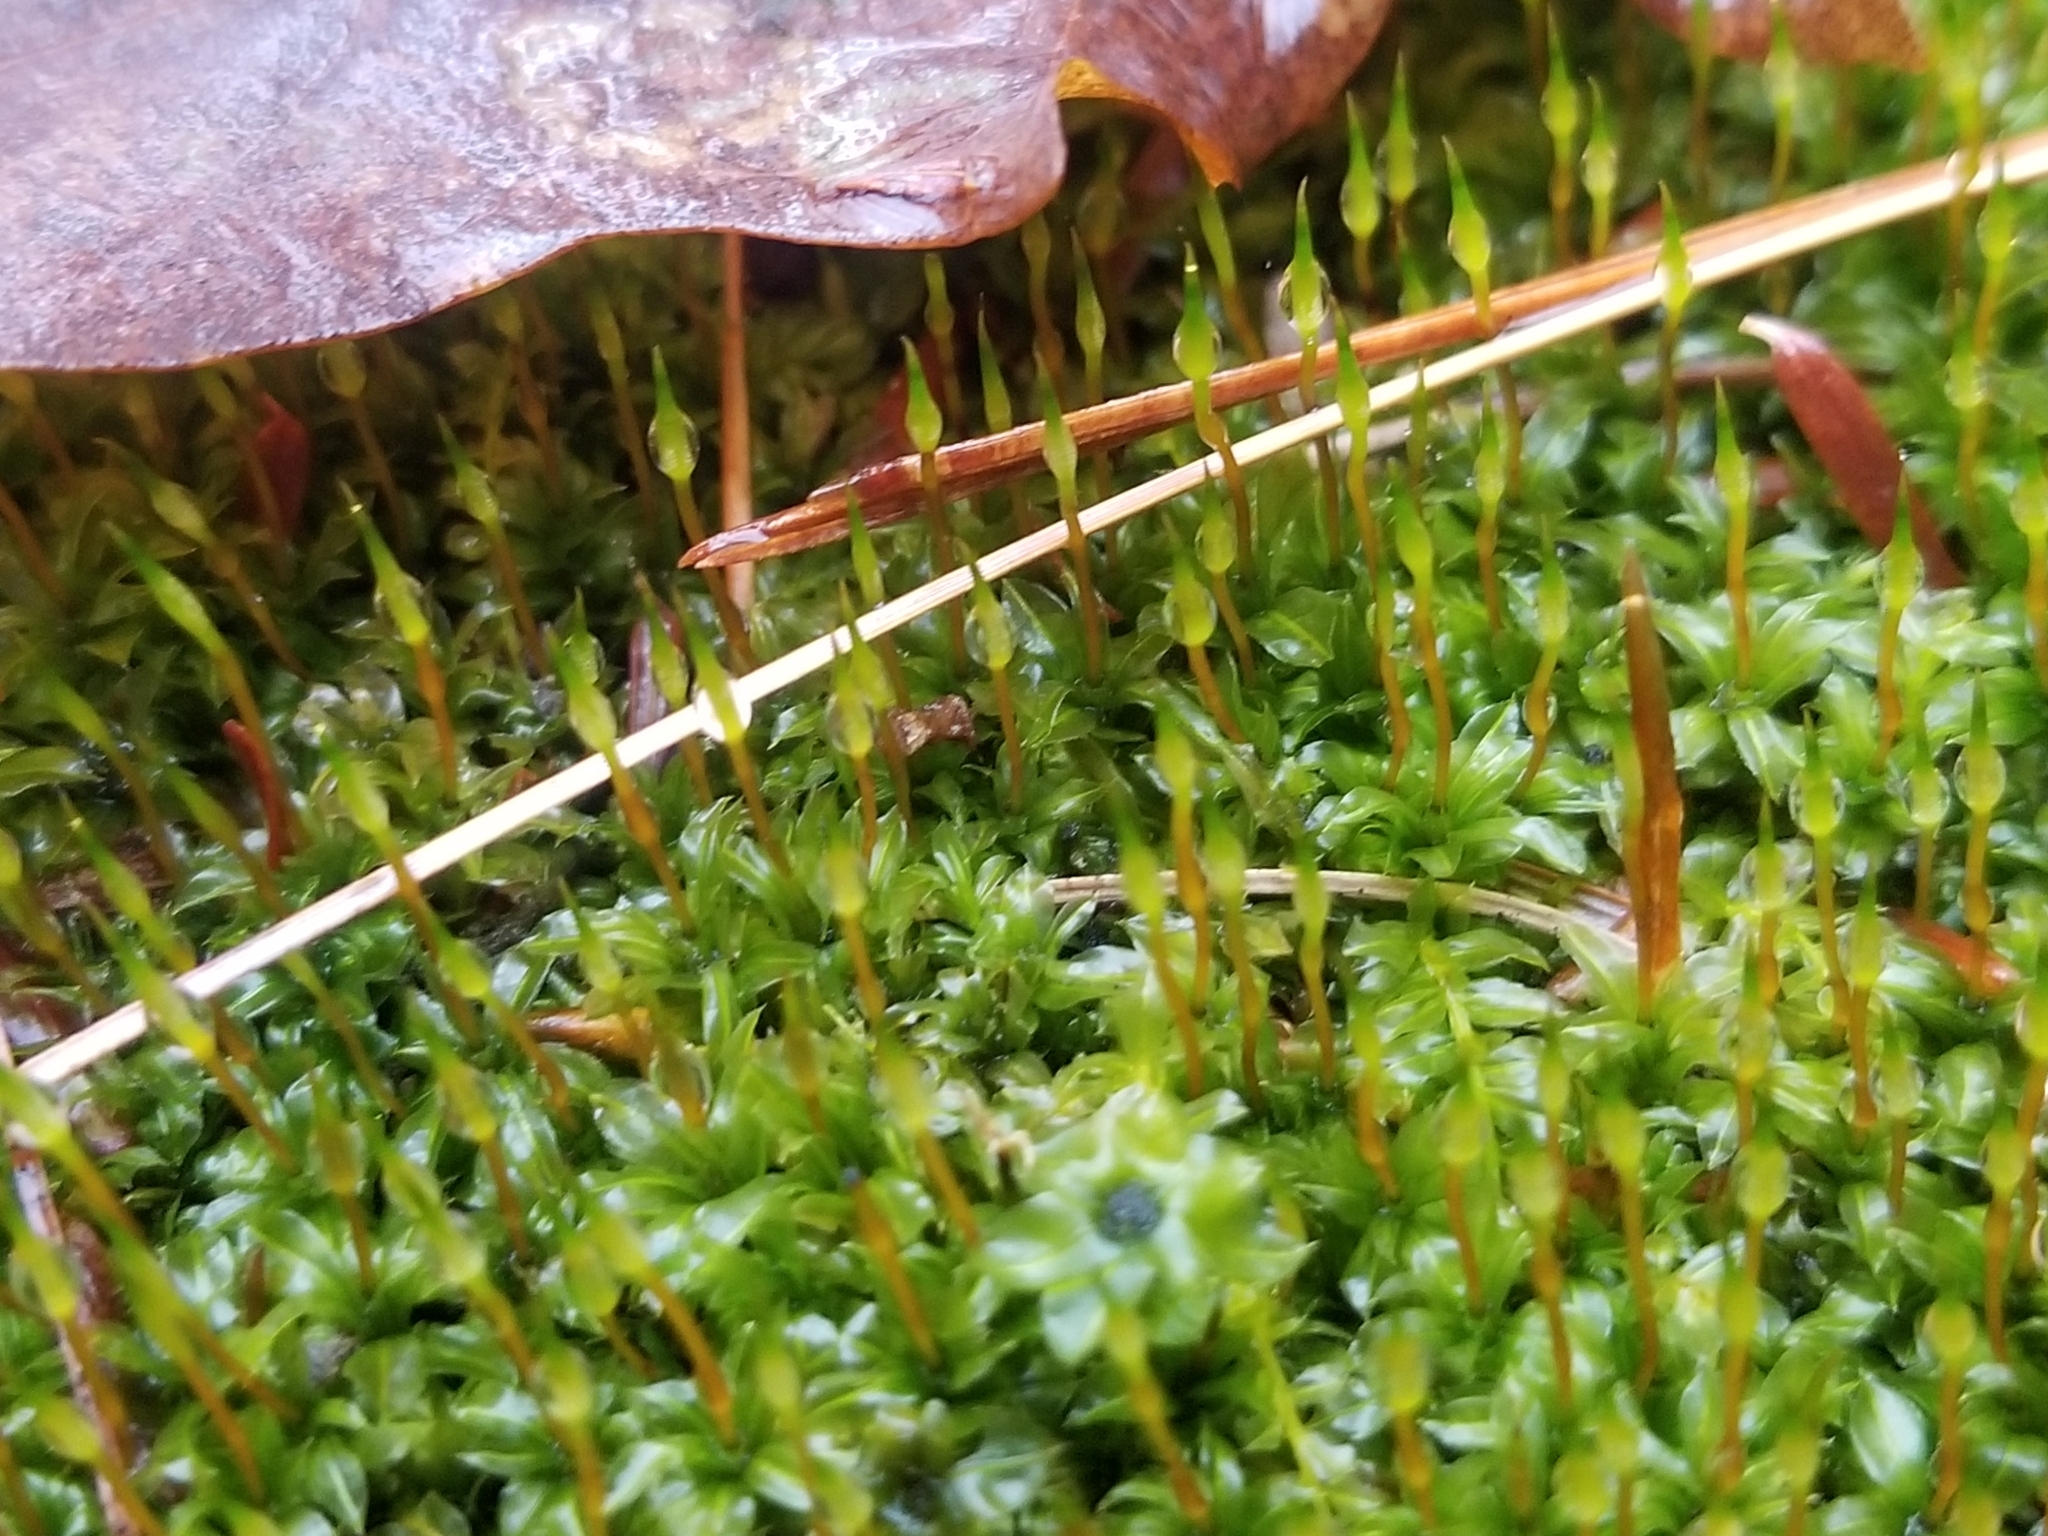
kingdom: Plantae
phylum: Bryophyta
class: Bryopsida
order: Bryales
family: Mniaceae
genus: Plagiomnium
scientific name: Plagiomnium cuspidatum
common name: Woodsy leafy moss
